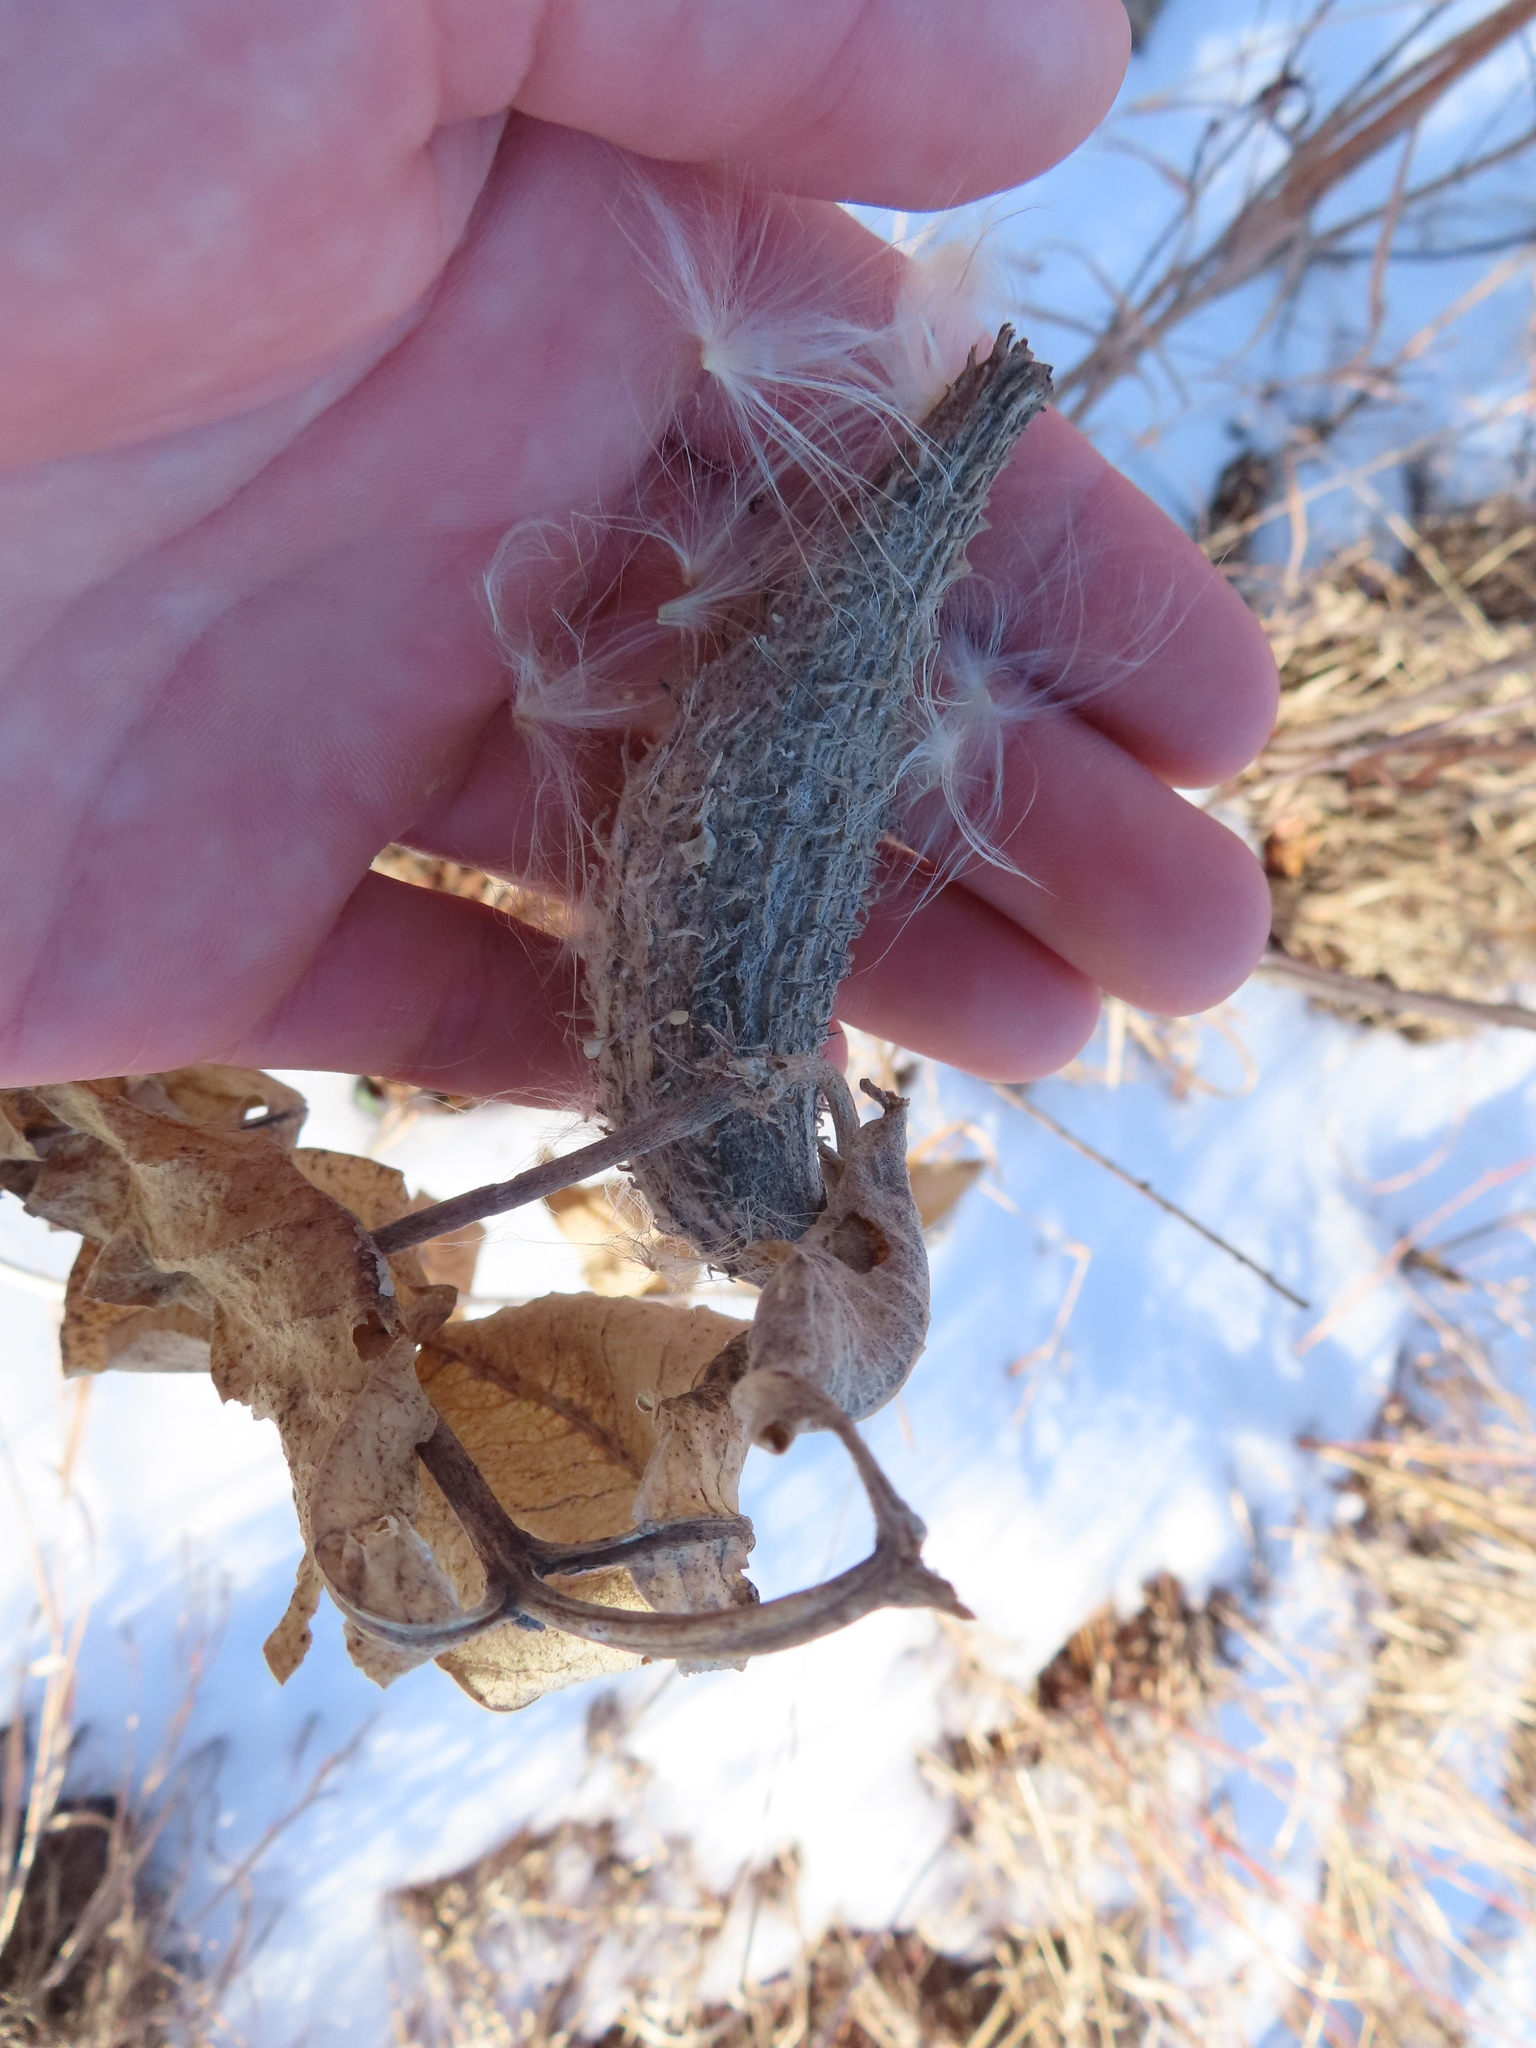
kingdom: Plantae
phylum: Tracheophyta
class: Magnoliopsida
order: Gentianales
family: Apocynaceae
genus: Asclepias
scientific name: Asclepias speciosa
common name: Showy milkweed
